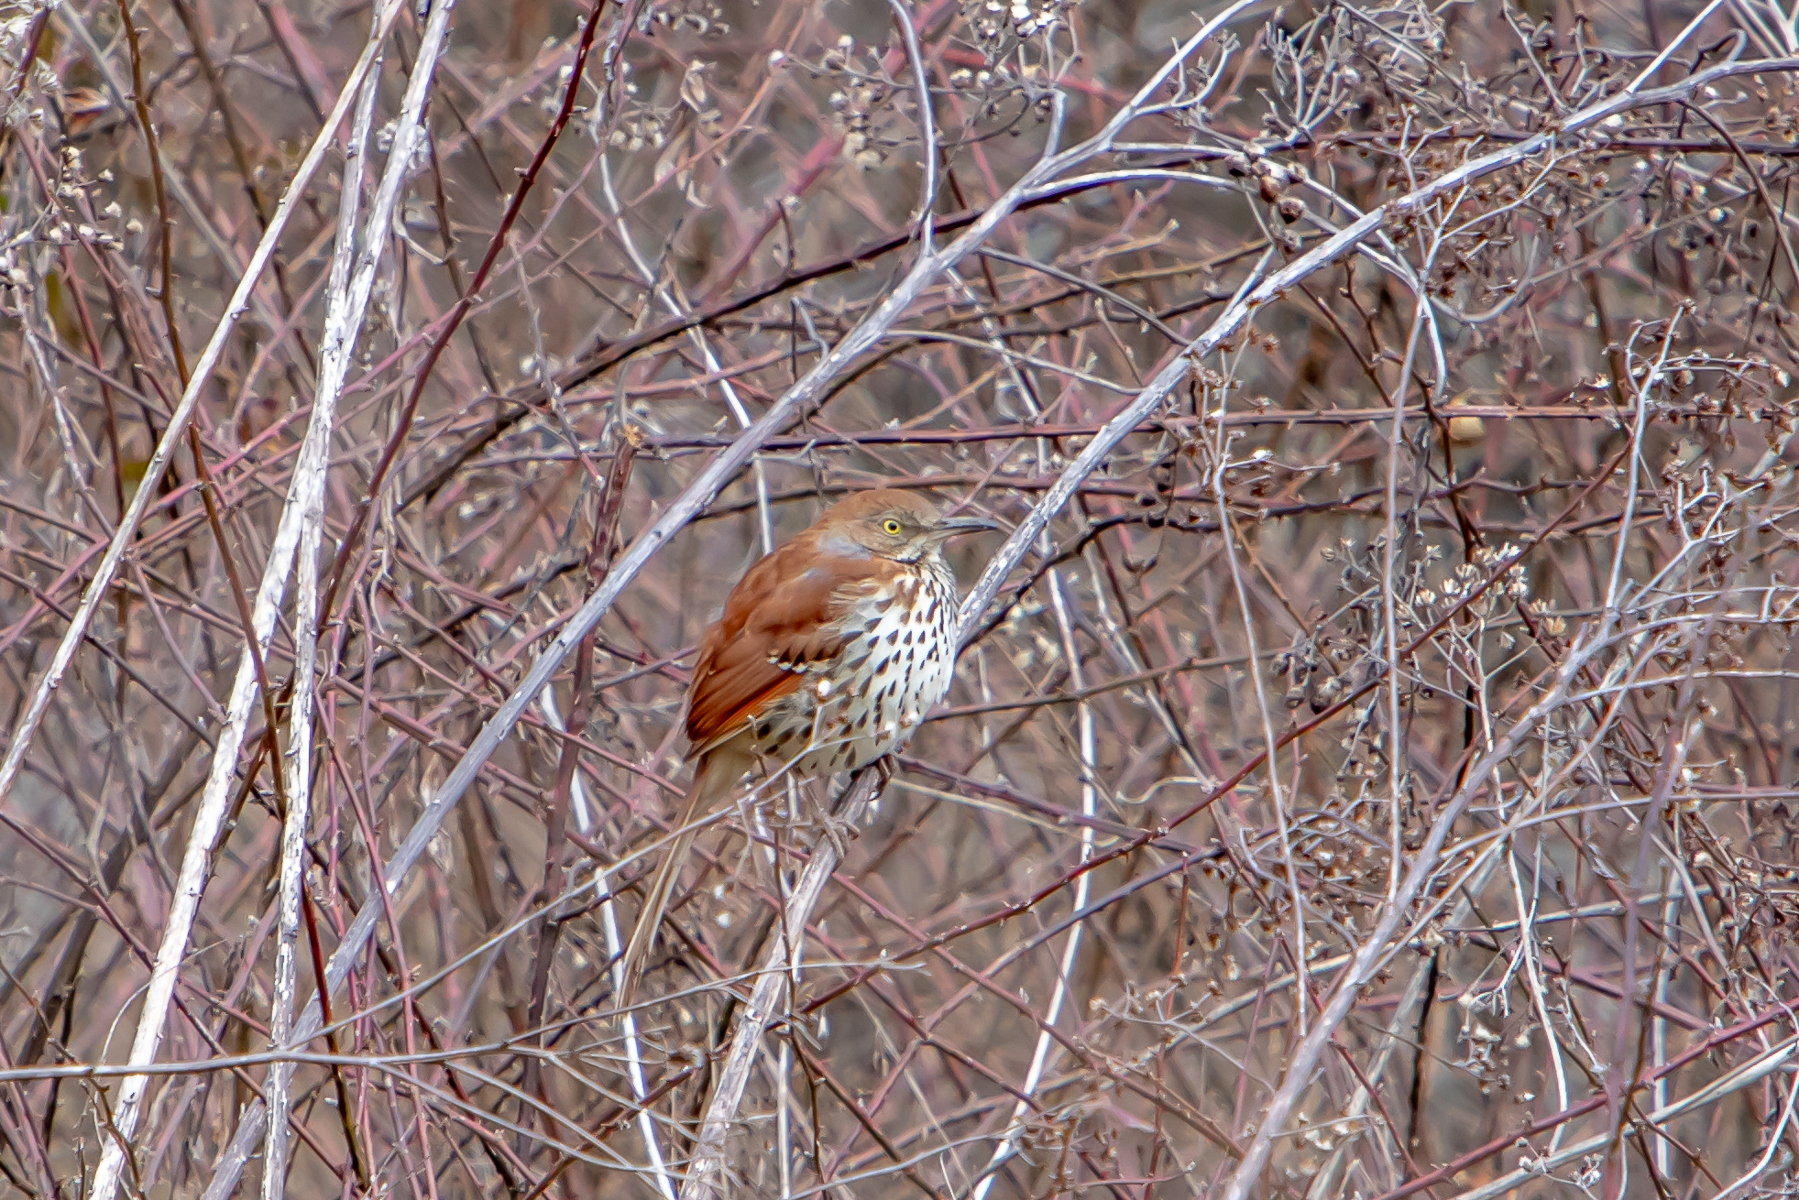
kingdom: Animalia
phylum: Chordata
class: Aves
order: Passeriformes
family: Mimidae
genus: Toxostoma
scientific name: Toxostoma rufum
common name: Brown thrasher
